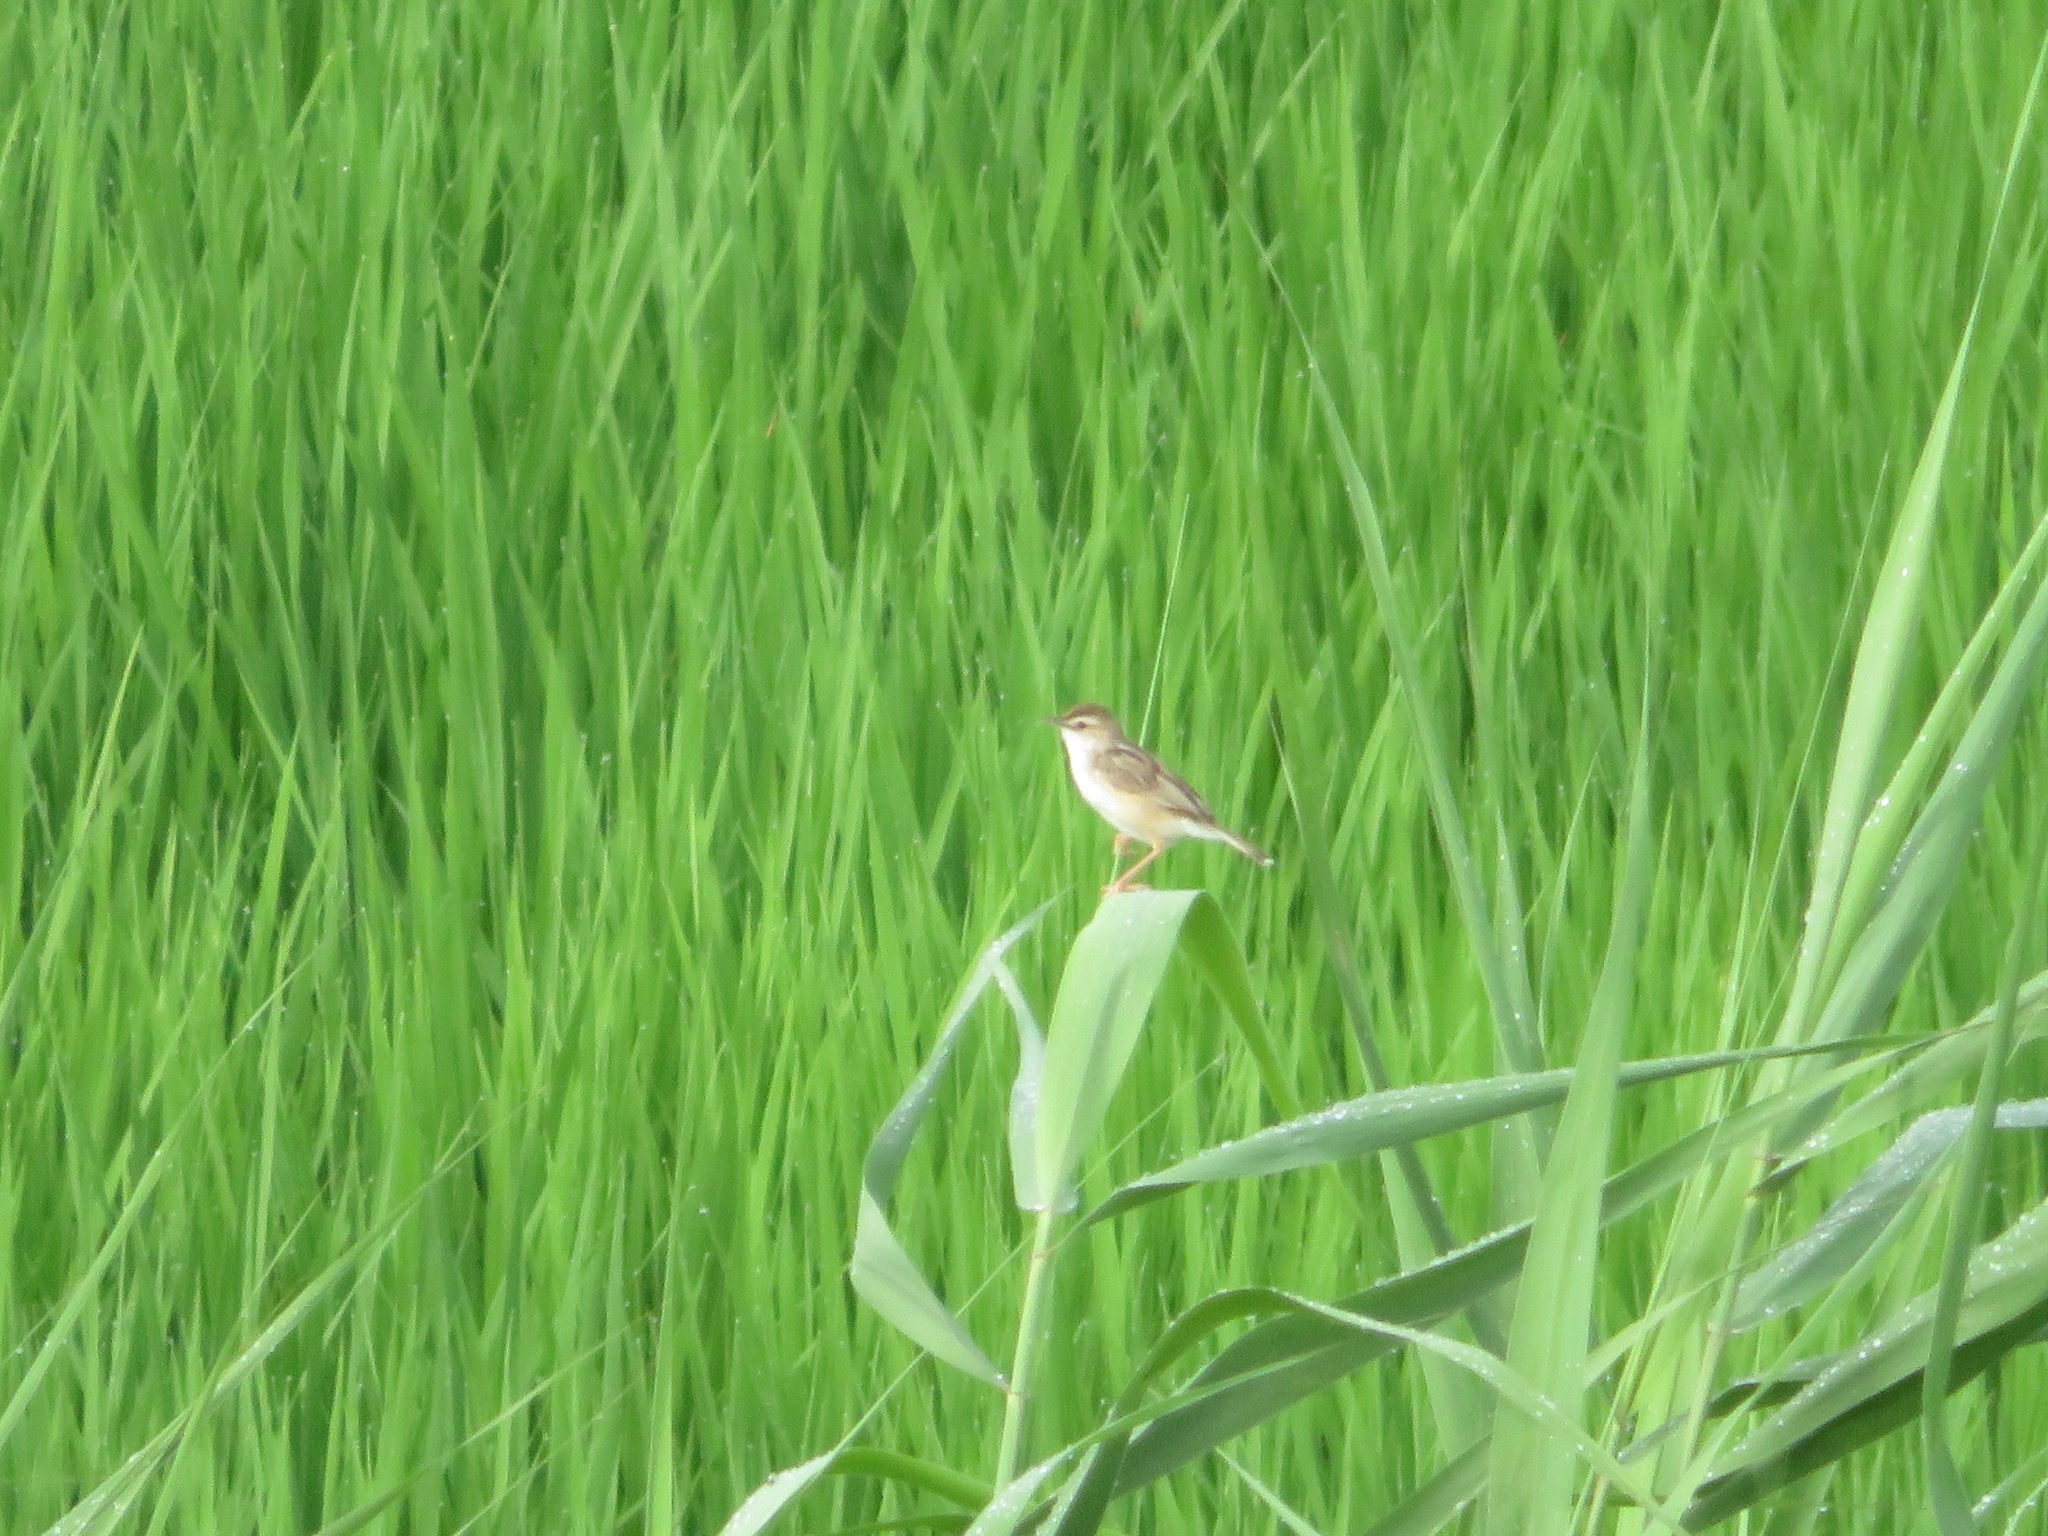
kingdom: Animalia
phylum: Chordata
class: Aves
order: Passeriformes
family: Cisticolidae
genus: Cisticola
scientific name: Cisticola juncidis
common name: Zitting cisticola
